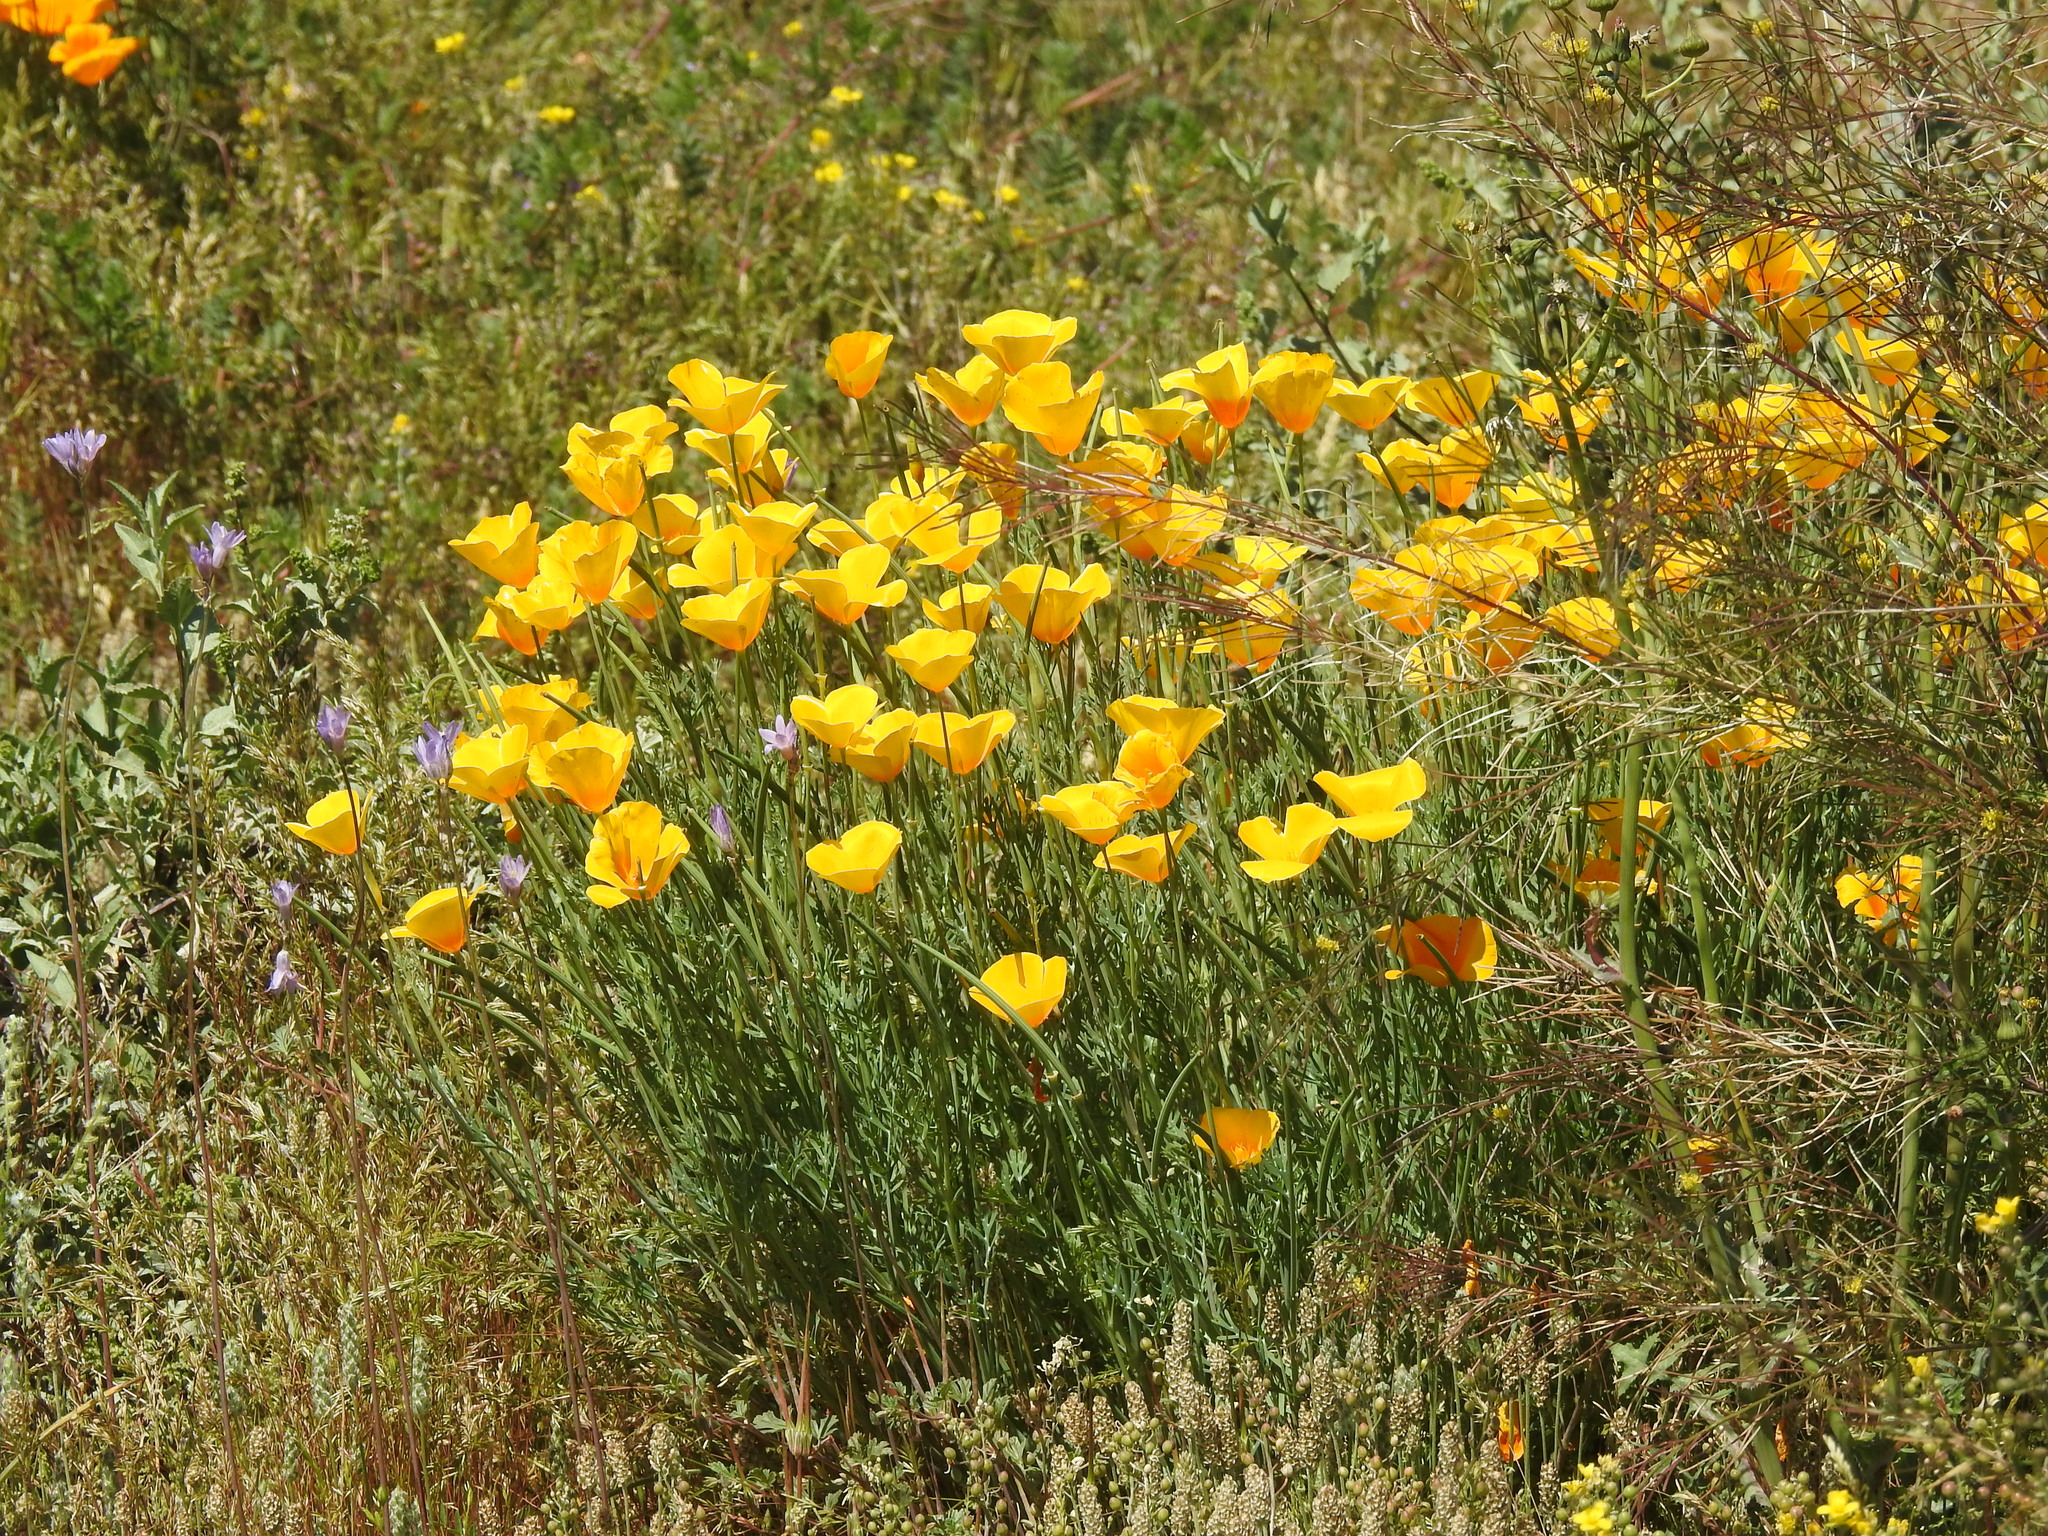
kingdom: Plantae
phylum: Tracheophyta
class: Magnoliopsida
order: Ranunculales
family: Papaveraceae
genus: Eschscholzia
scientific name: Eschscholzia californica
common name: California poppy
